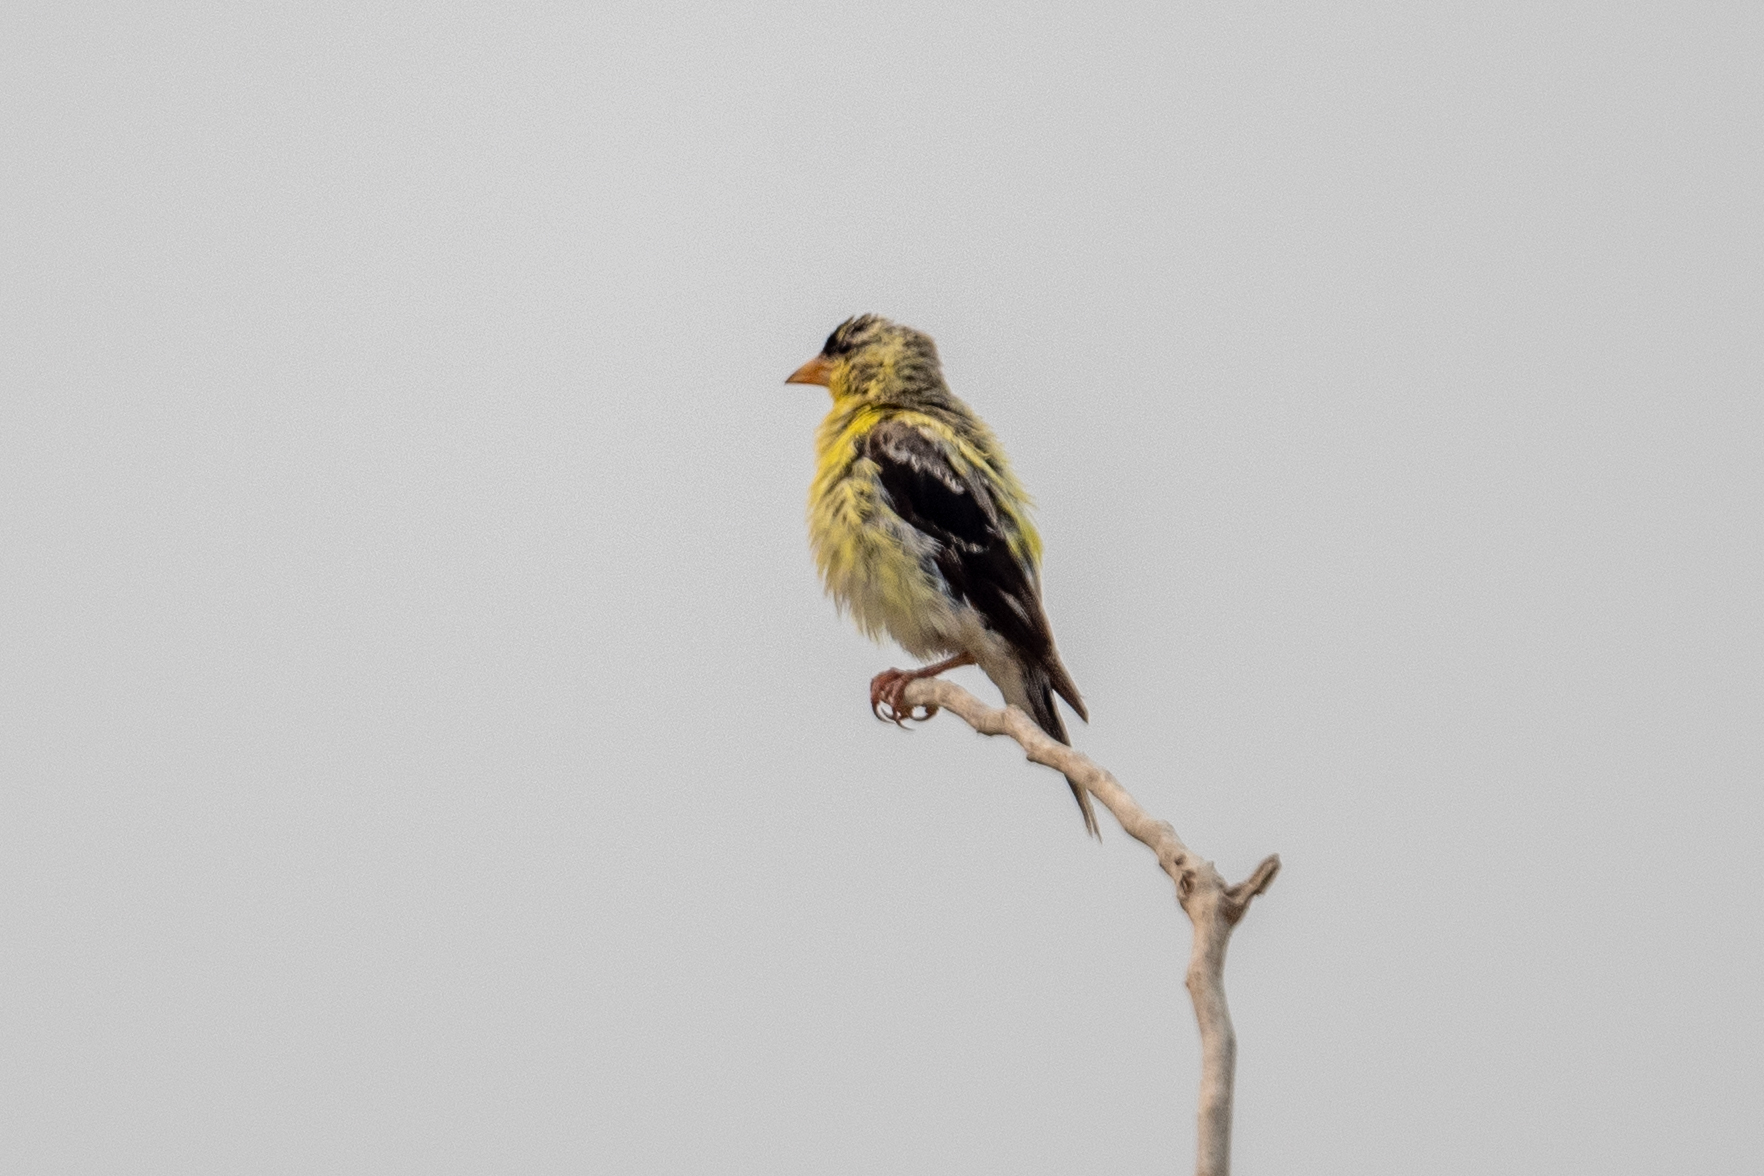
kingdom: Animalia
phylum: Chordata
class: Aves
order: Passeriformes
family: Fringillidae
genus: Spinus
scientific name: Spinus tristis
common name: American goldfinch
